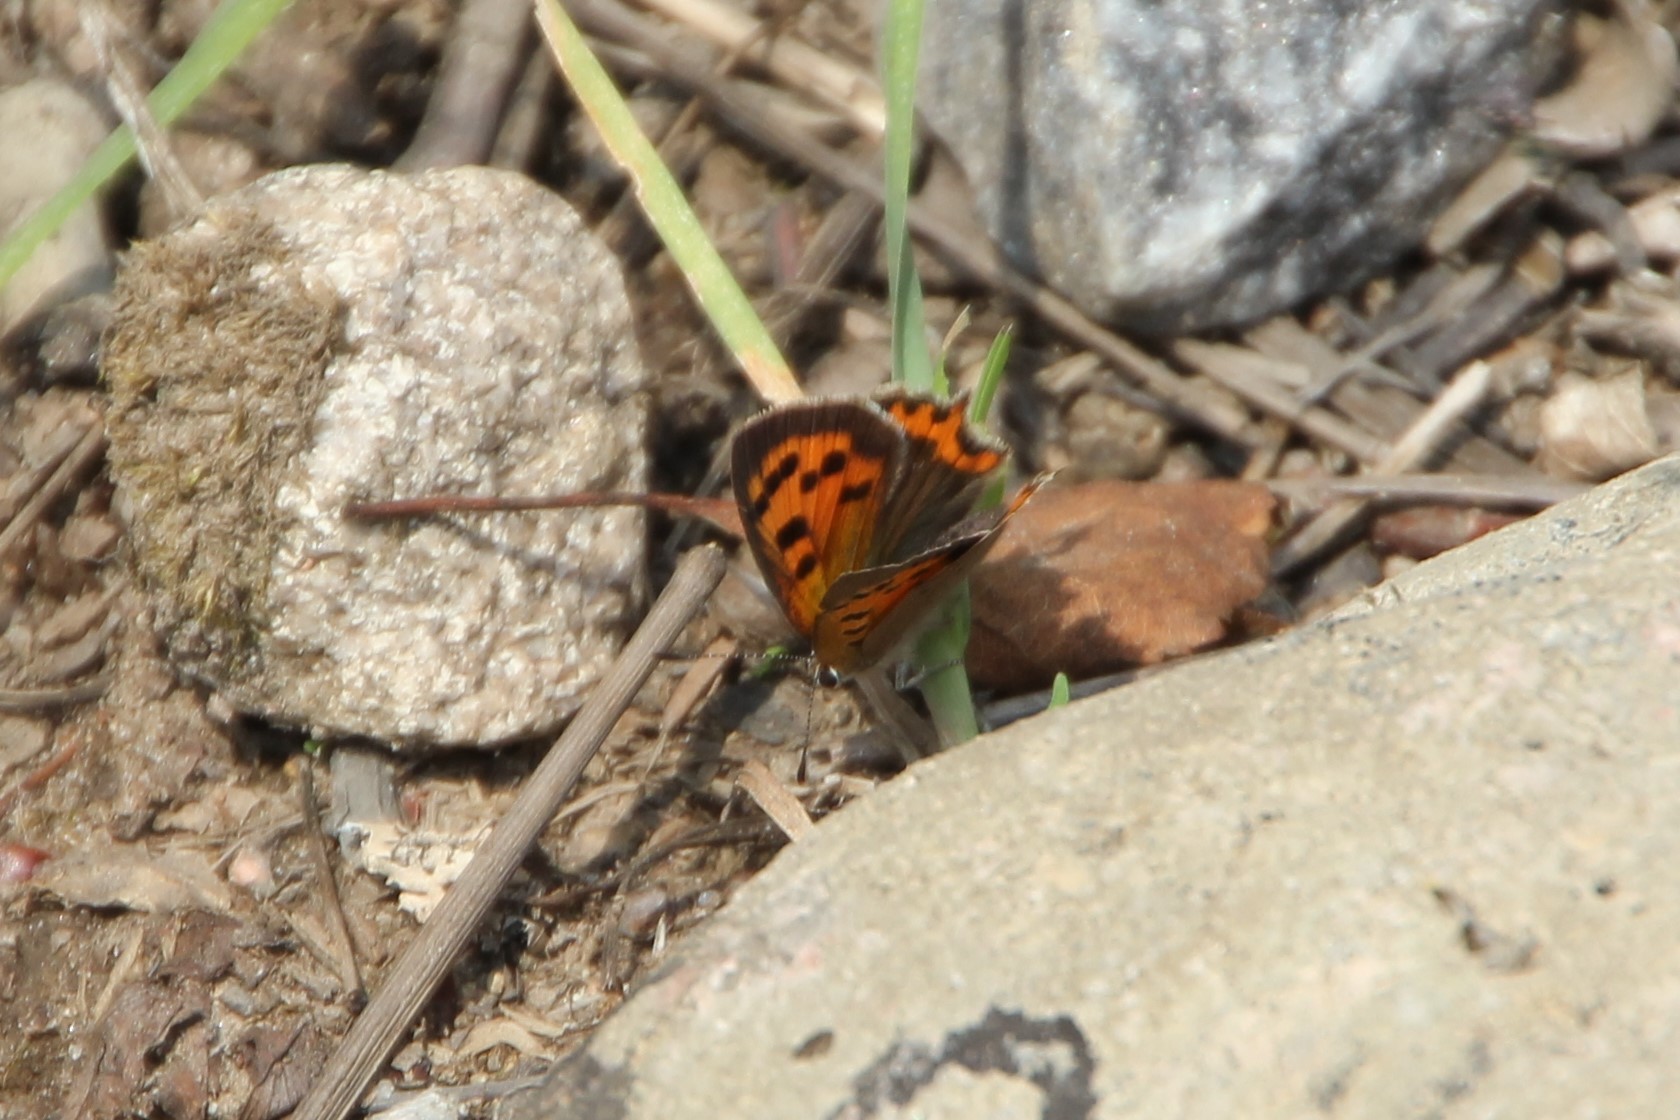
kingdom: Animalia
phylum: Arthropoda
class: Insecta
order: Lepidoptera
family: Lycaenidae
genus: Lycaena
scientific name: Lycaena phlaeas
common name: Small copper
